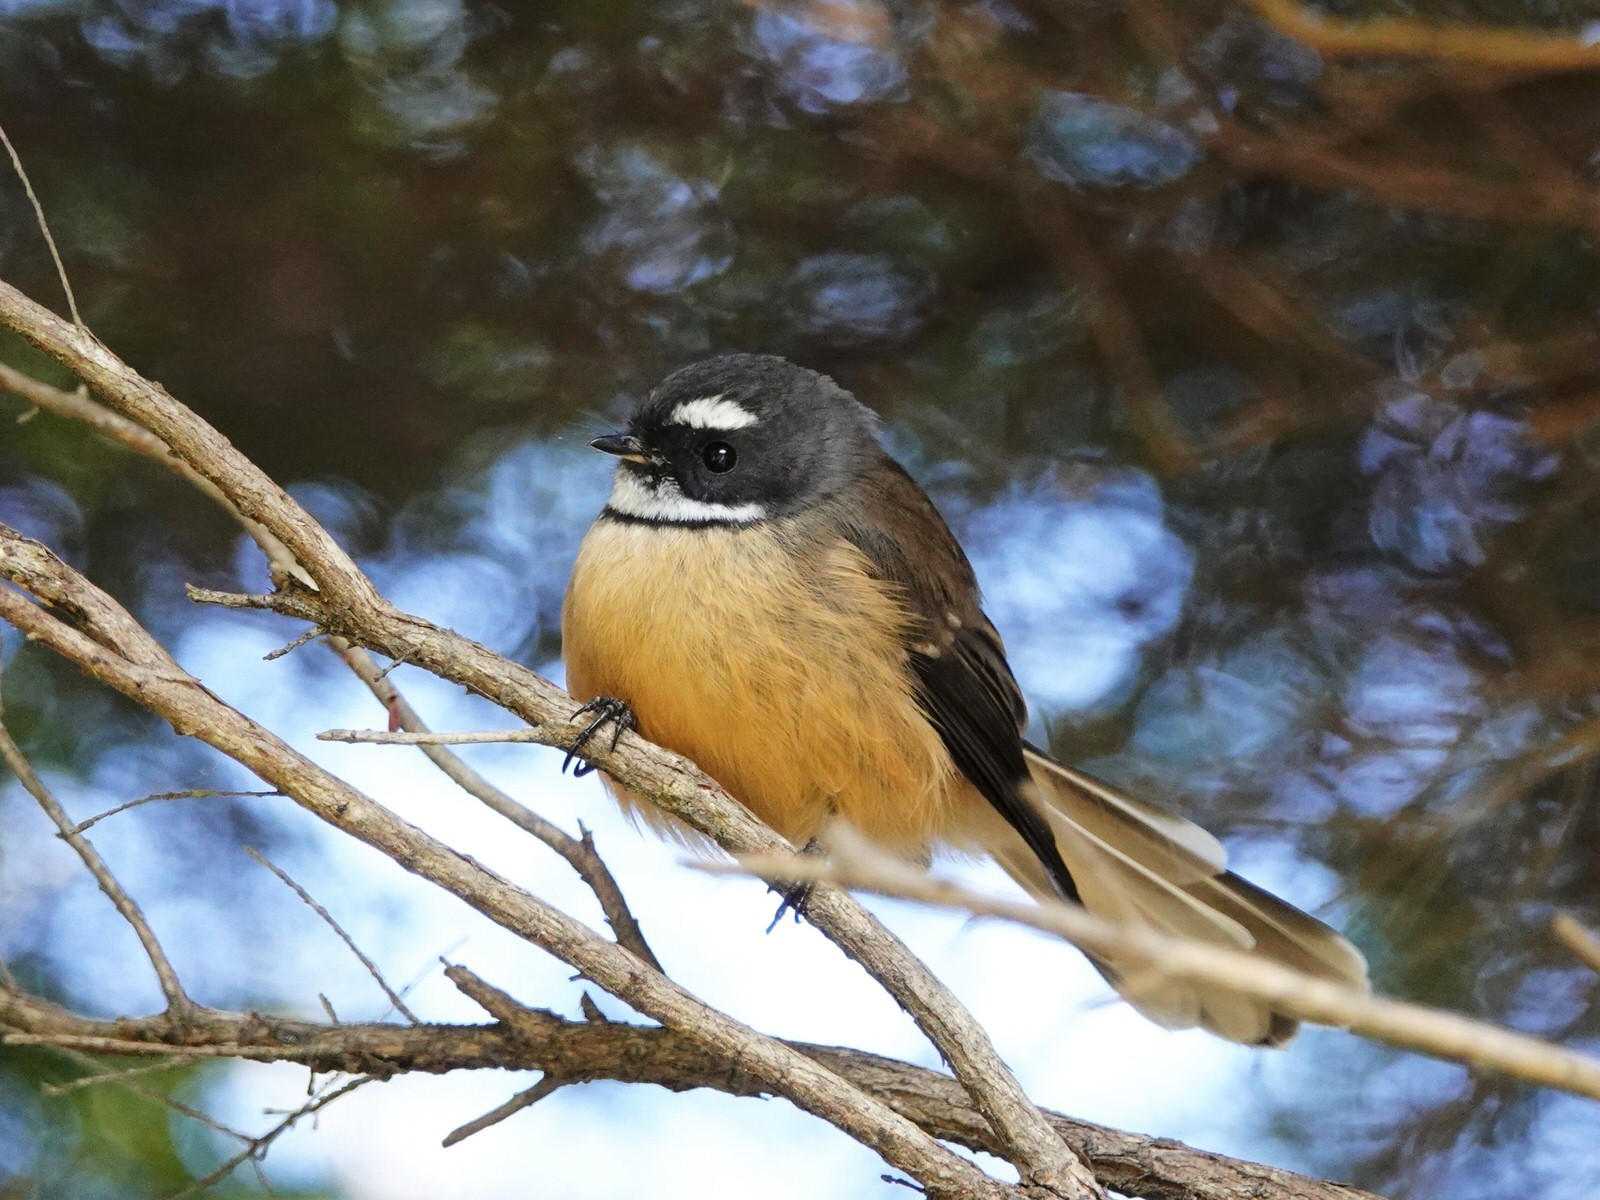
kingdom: Animalia
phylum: Chordata
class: Aves
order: Passeriformes
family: Rhipiduridae
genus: Rhipidura
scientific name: Rhipidura fuliginosa
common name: New zealand fantail
